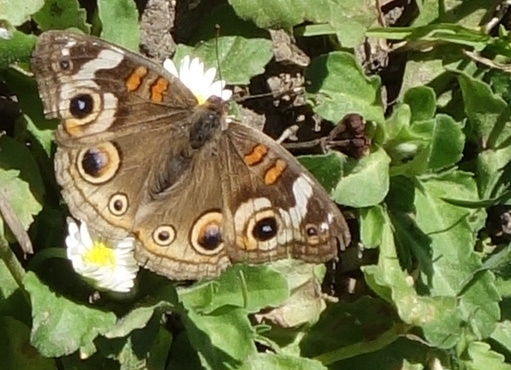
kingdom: Animalia
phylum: Arthropoda
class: Insecta
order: Lepidoptera
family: Nymphalidae
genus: Junonia
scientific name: Junonia grisea
